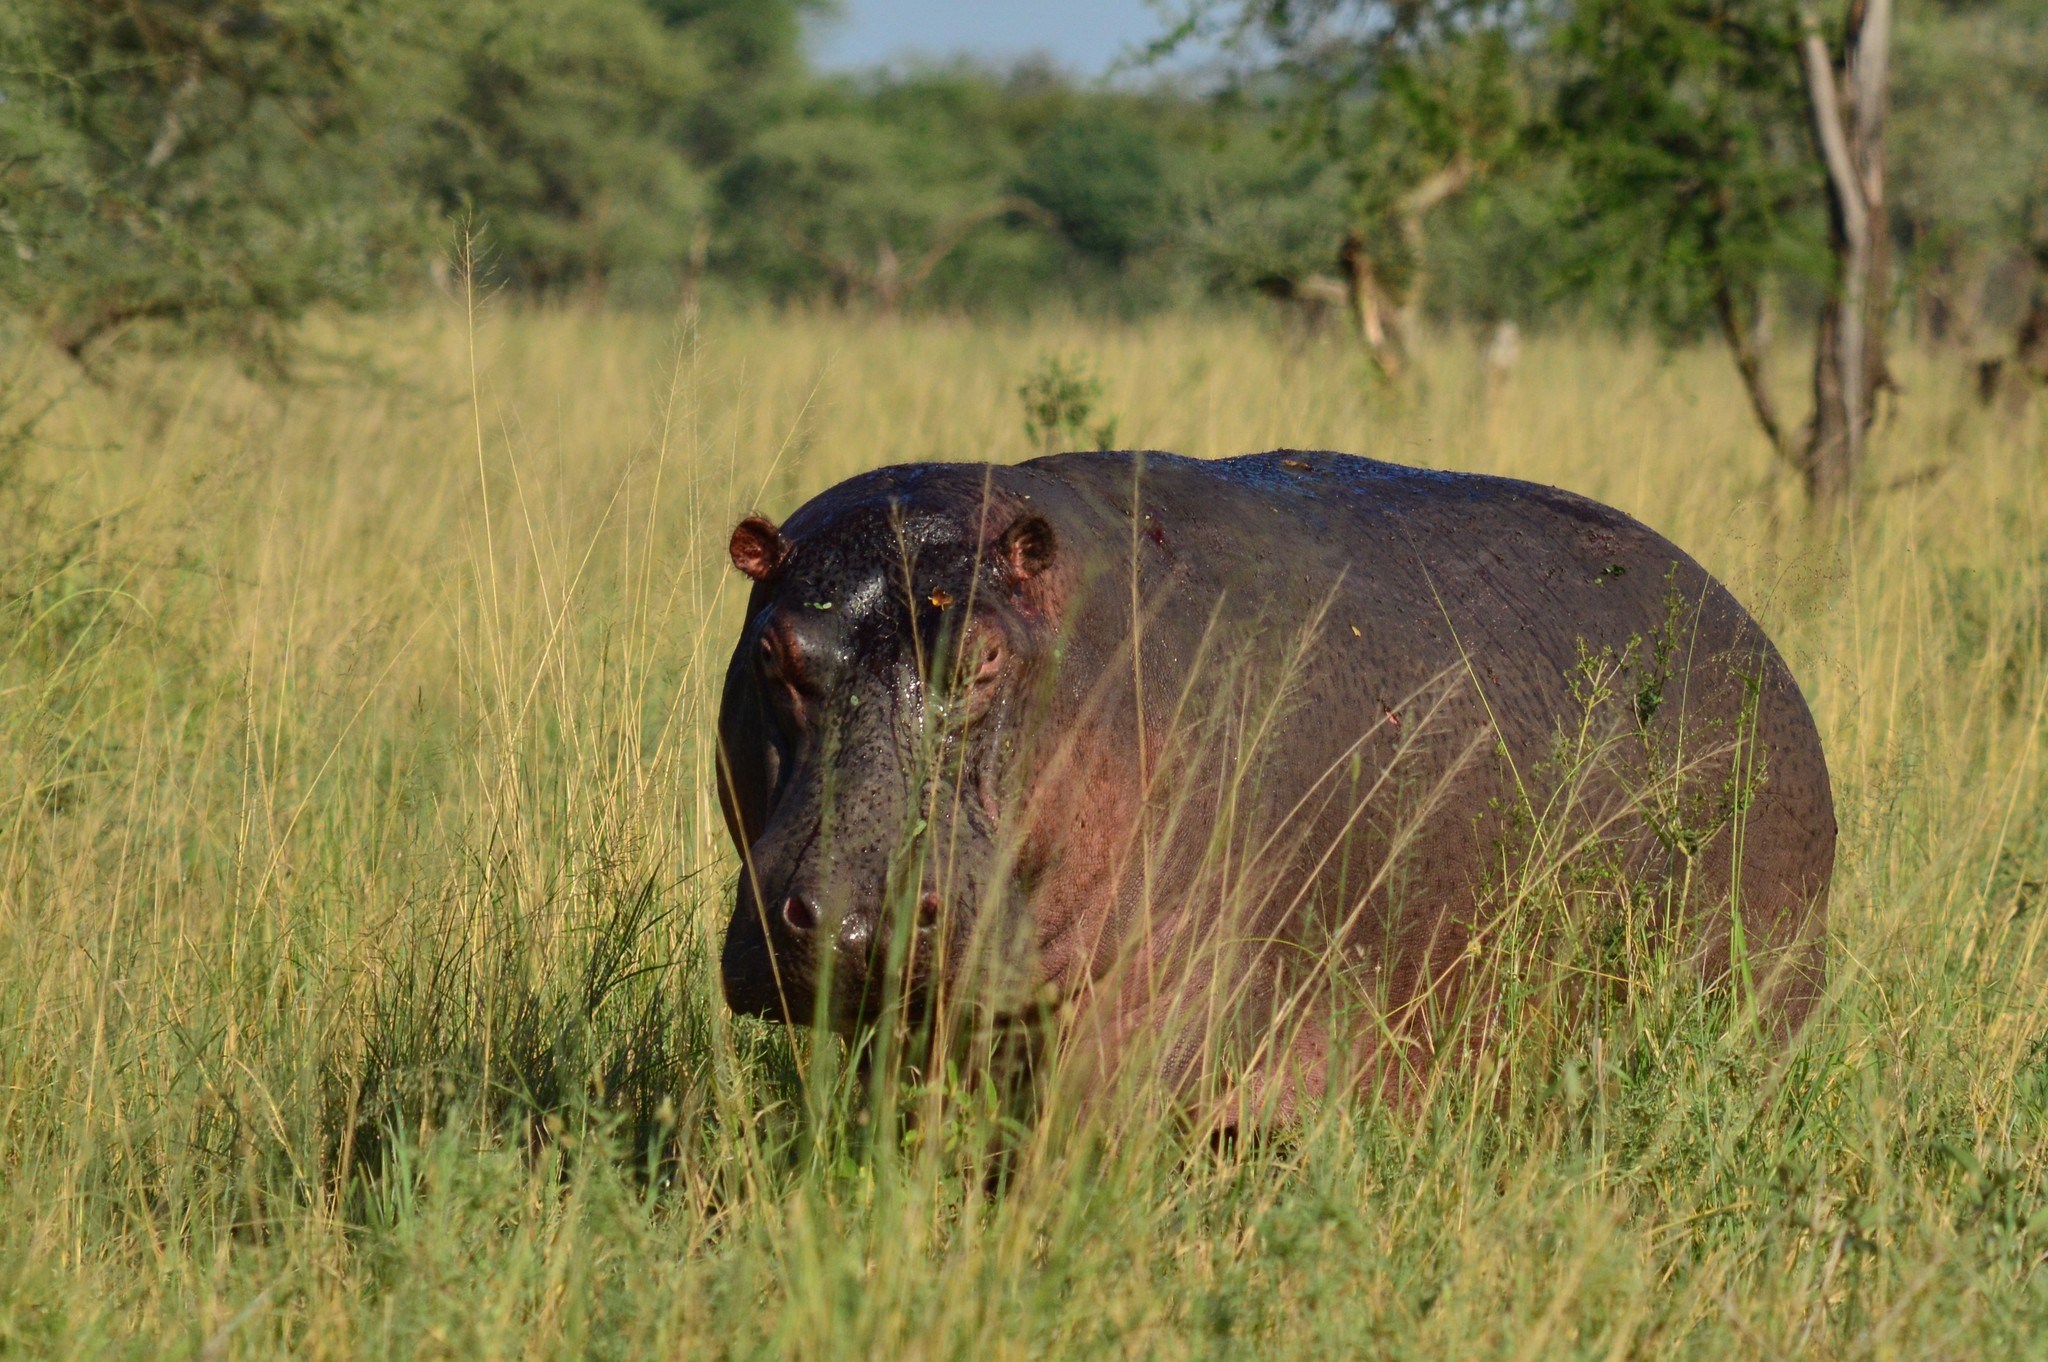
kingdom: Animalia
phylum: Chordata
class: Mammalia
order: Artiodactyla
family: Hippopotamidae
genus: Hippopotamus
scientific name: Hippopotamus amphibius
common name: Common hippopotamus
